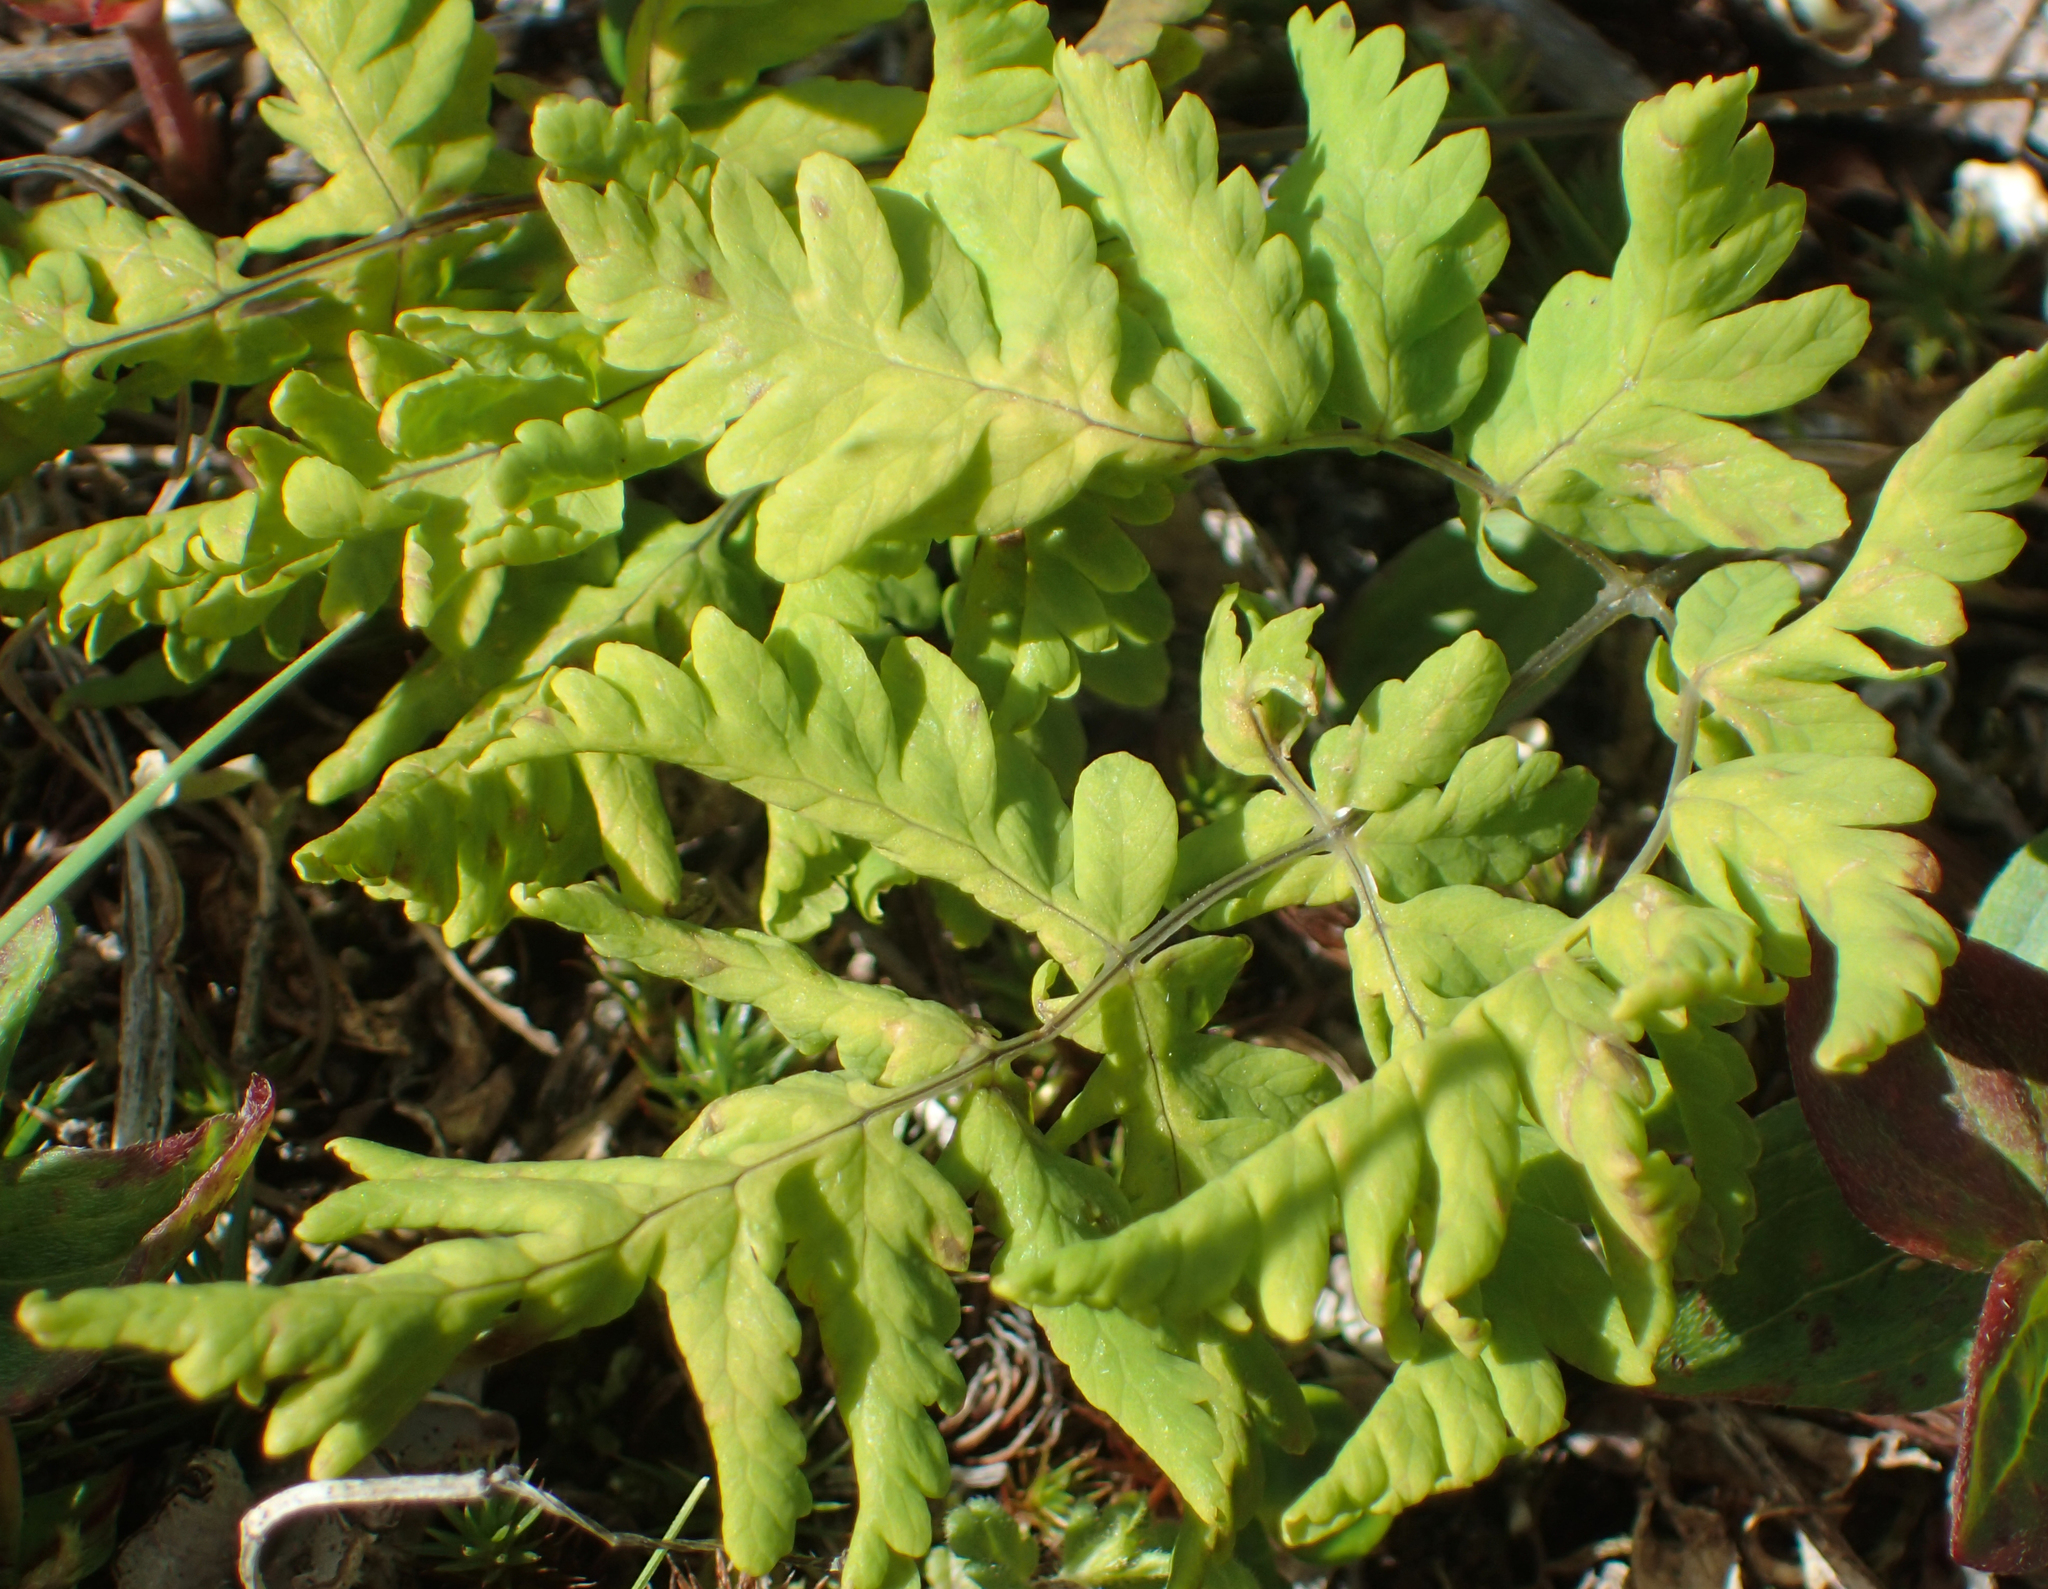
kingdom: Plantae
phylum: Tracheophyta
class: Polypodiopsida
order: Polypodiales
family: Cystopteridaceae
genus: Gymnocarpium
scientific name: Gymnocarpium continentale
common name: Asian oak fern
